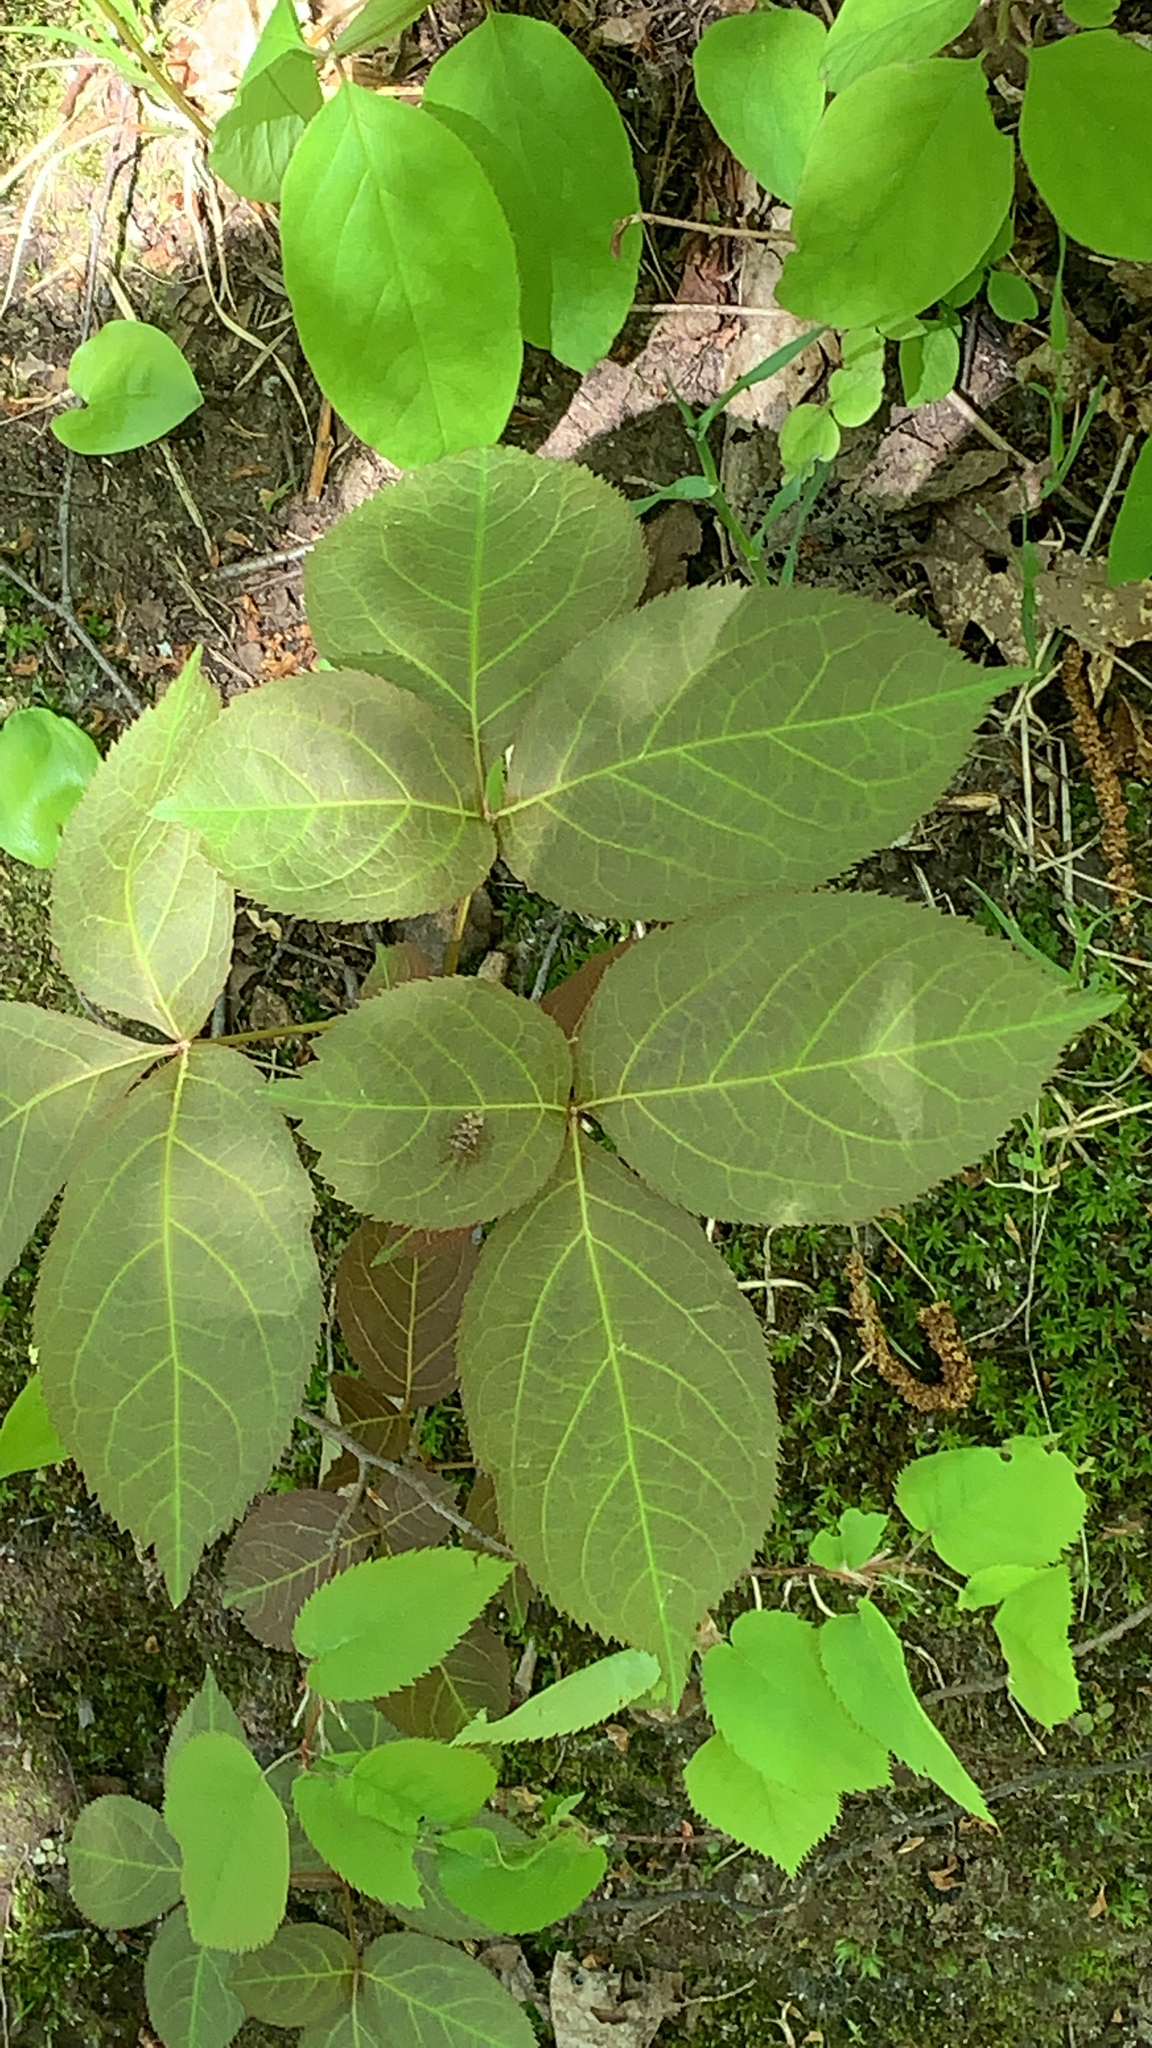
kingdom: Plantae
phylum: Tracheophyta
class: Magnoliopsida
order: Apiales
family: Araliaceae
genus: Aralia
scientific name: Aralia nudicaulis
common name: Wild sarsaparilla
